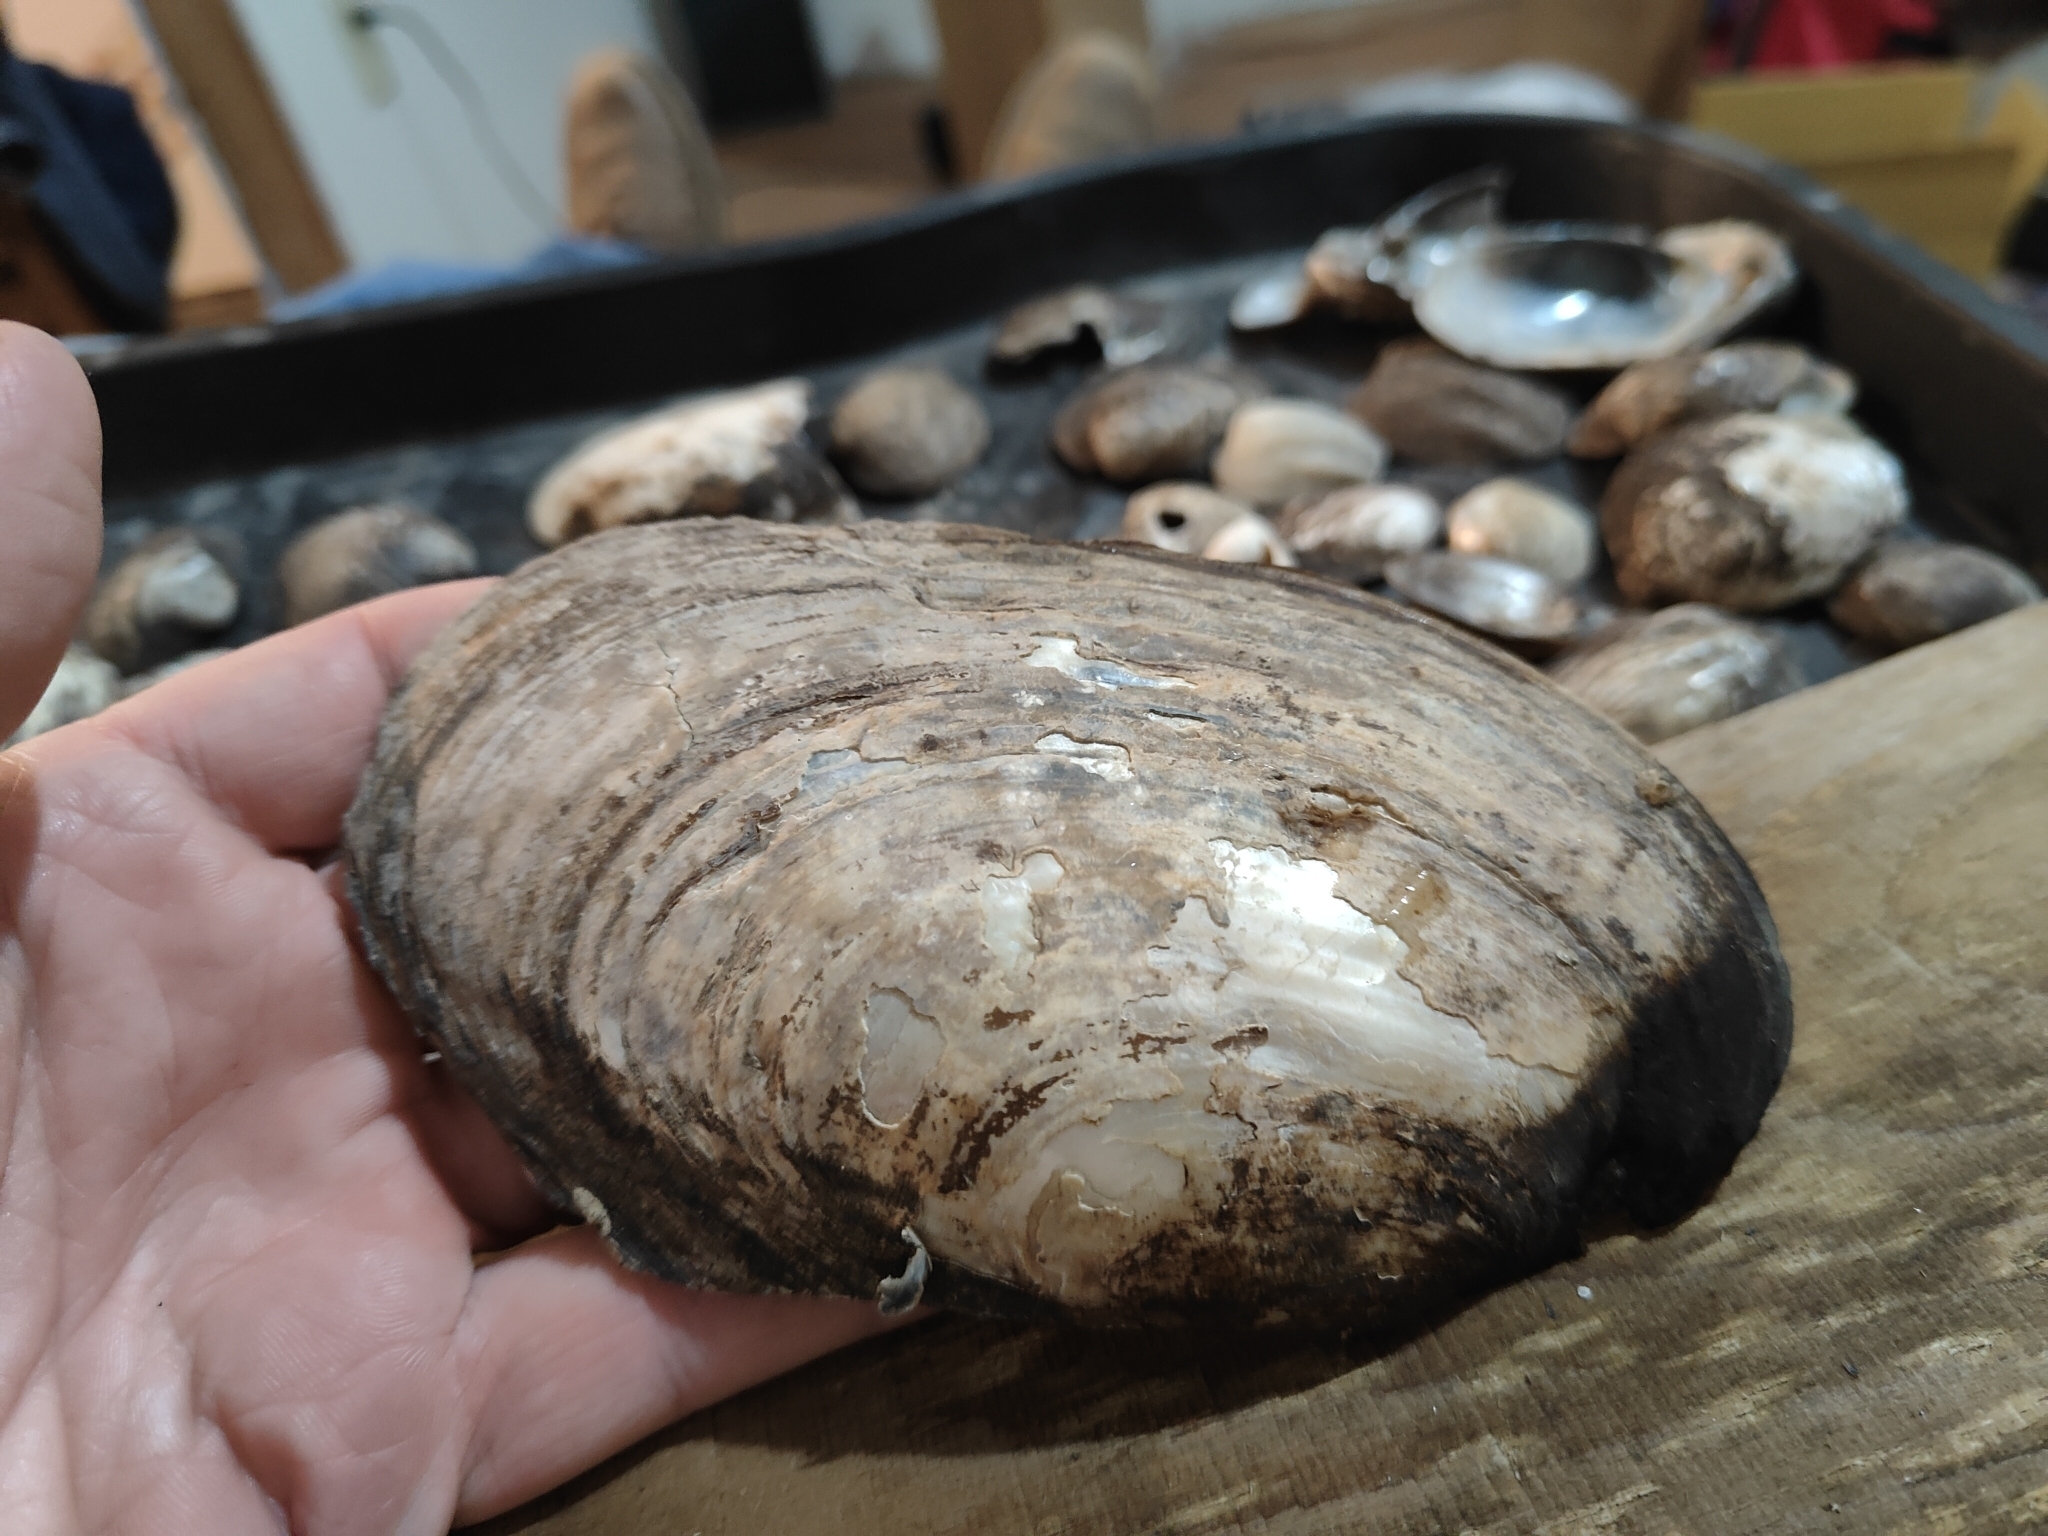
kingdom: Animalia
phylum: Mollusca
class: Bivalvia
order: Unionida
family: Unionidae
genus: Potamilus
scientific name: Potamilus fragilis
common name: Fragile papershell
